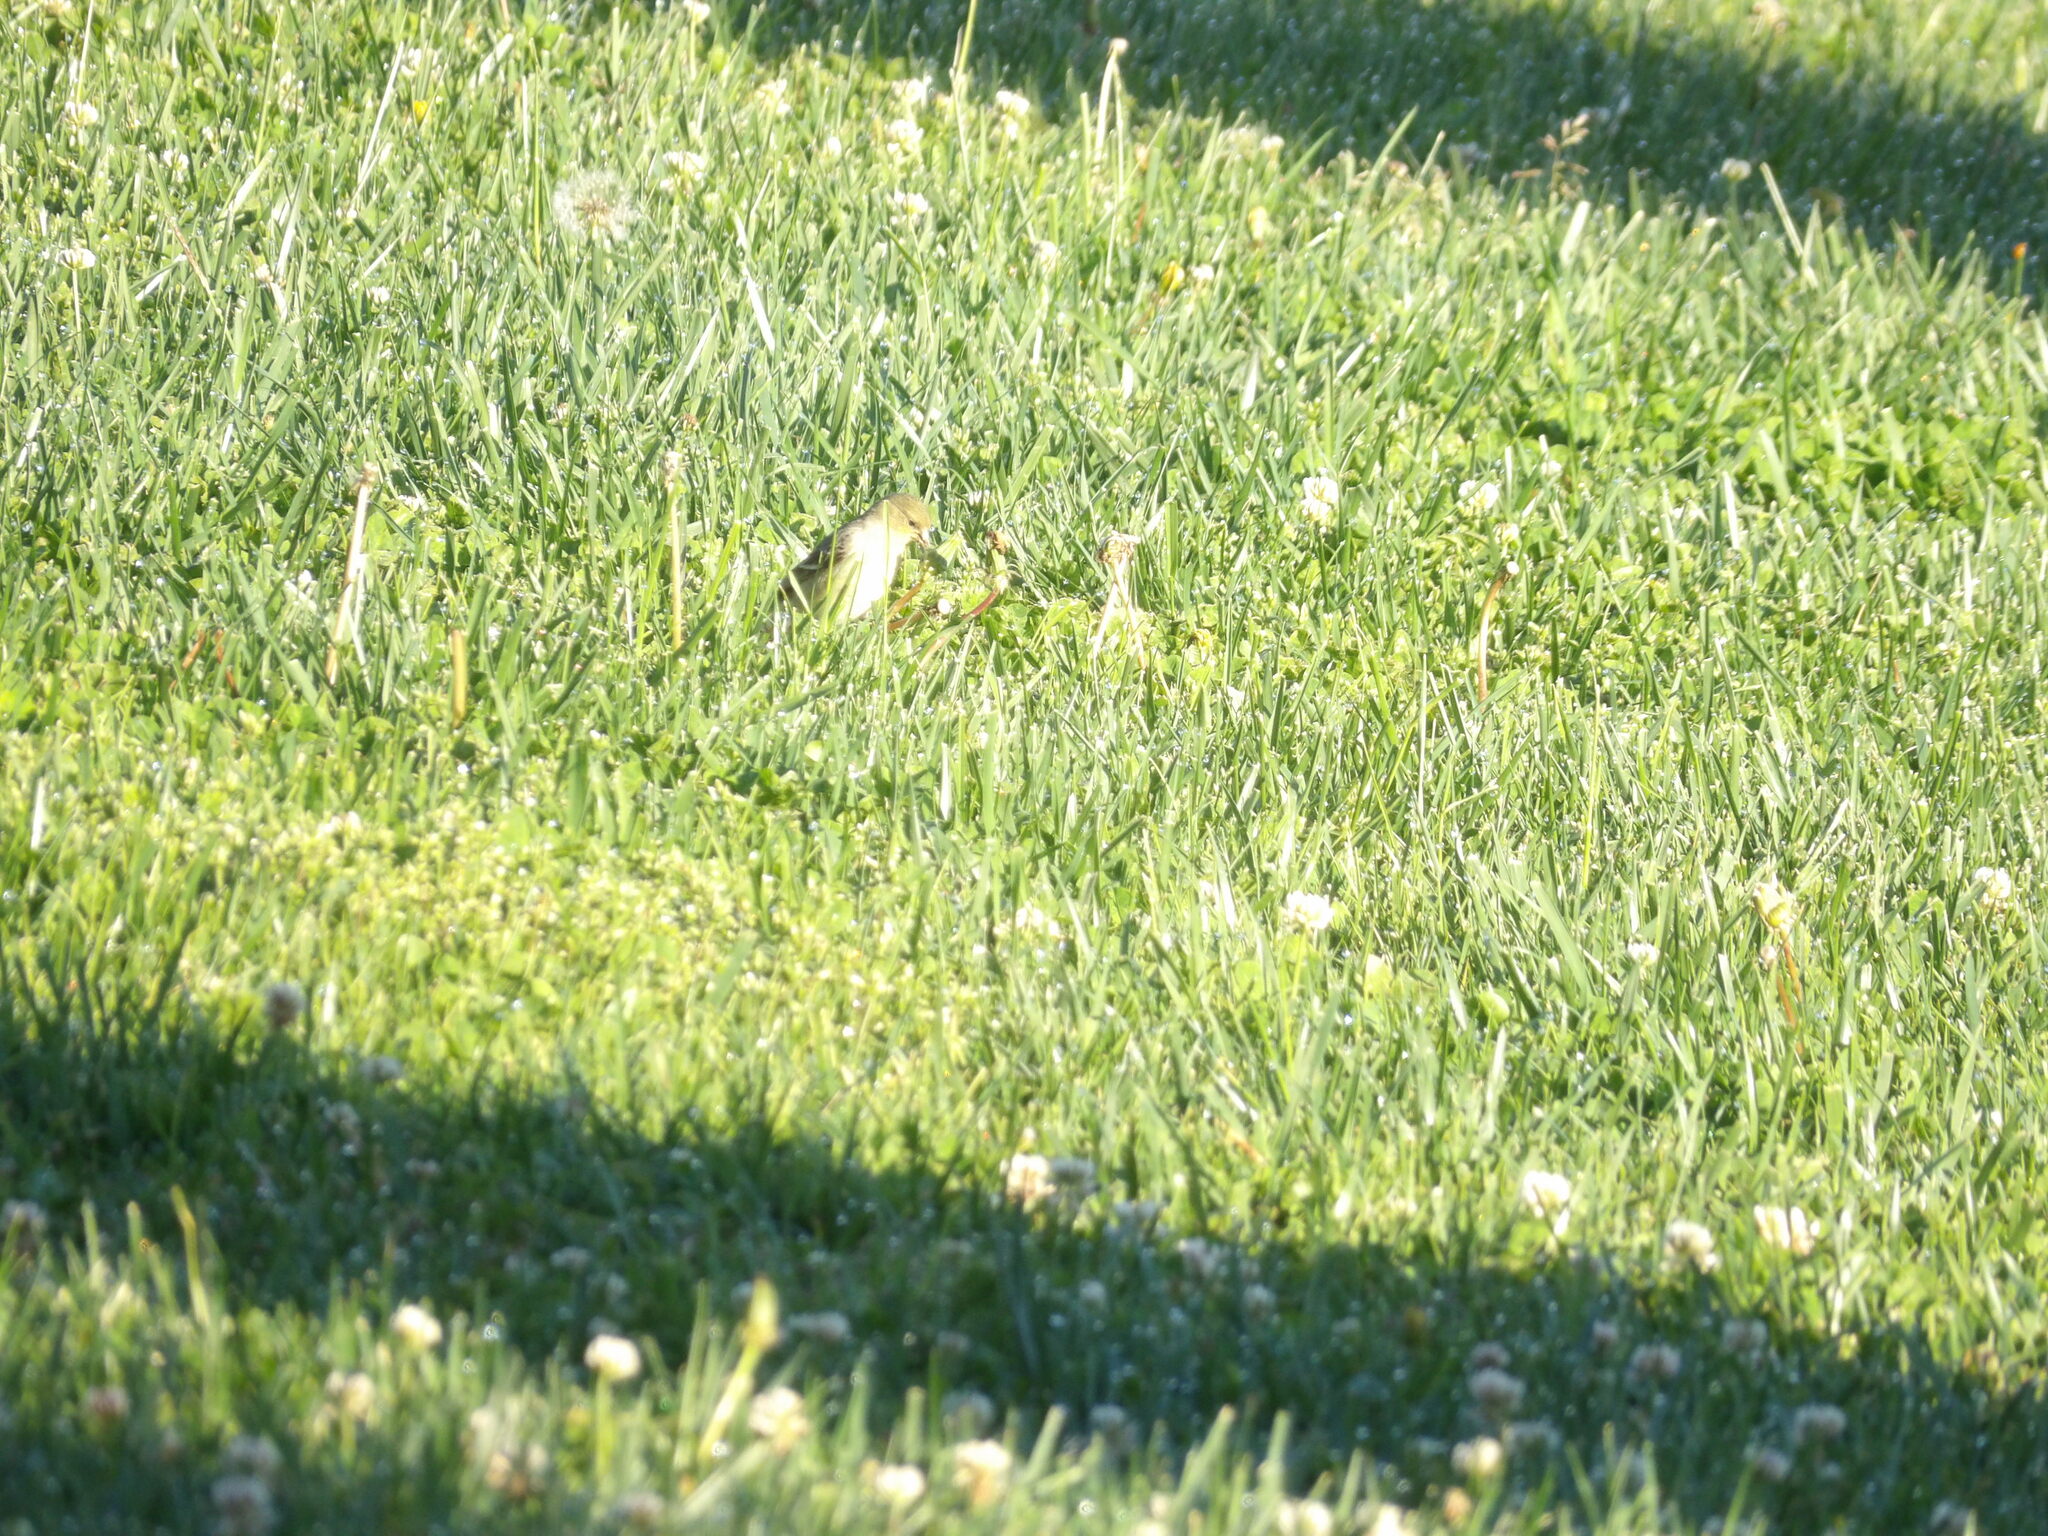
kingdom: Animalia
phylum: Chordata
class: Aves
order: Passeriformes
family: Fringillidae
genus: Spinus
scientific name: Spinus psaltria
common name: Lesser goldfinch
